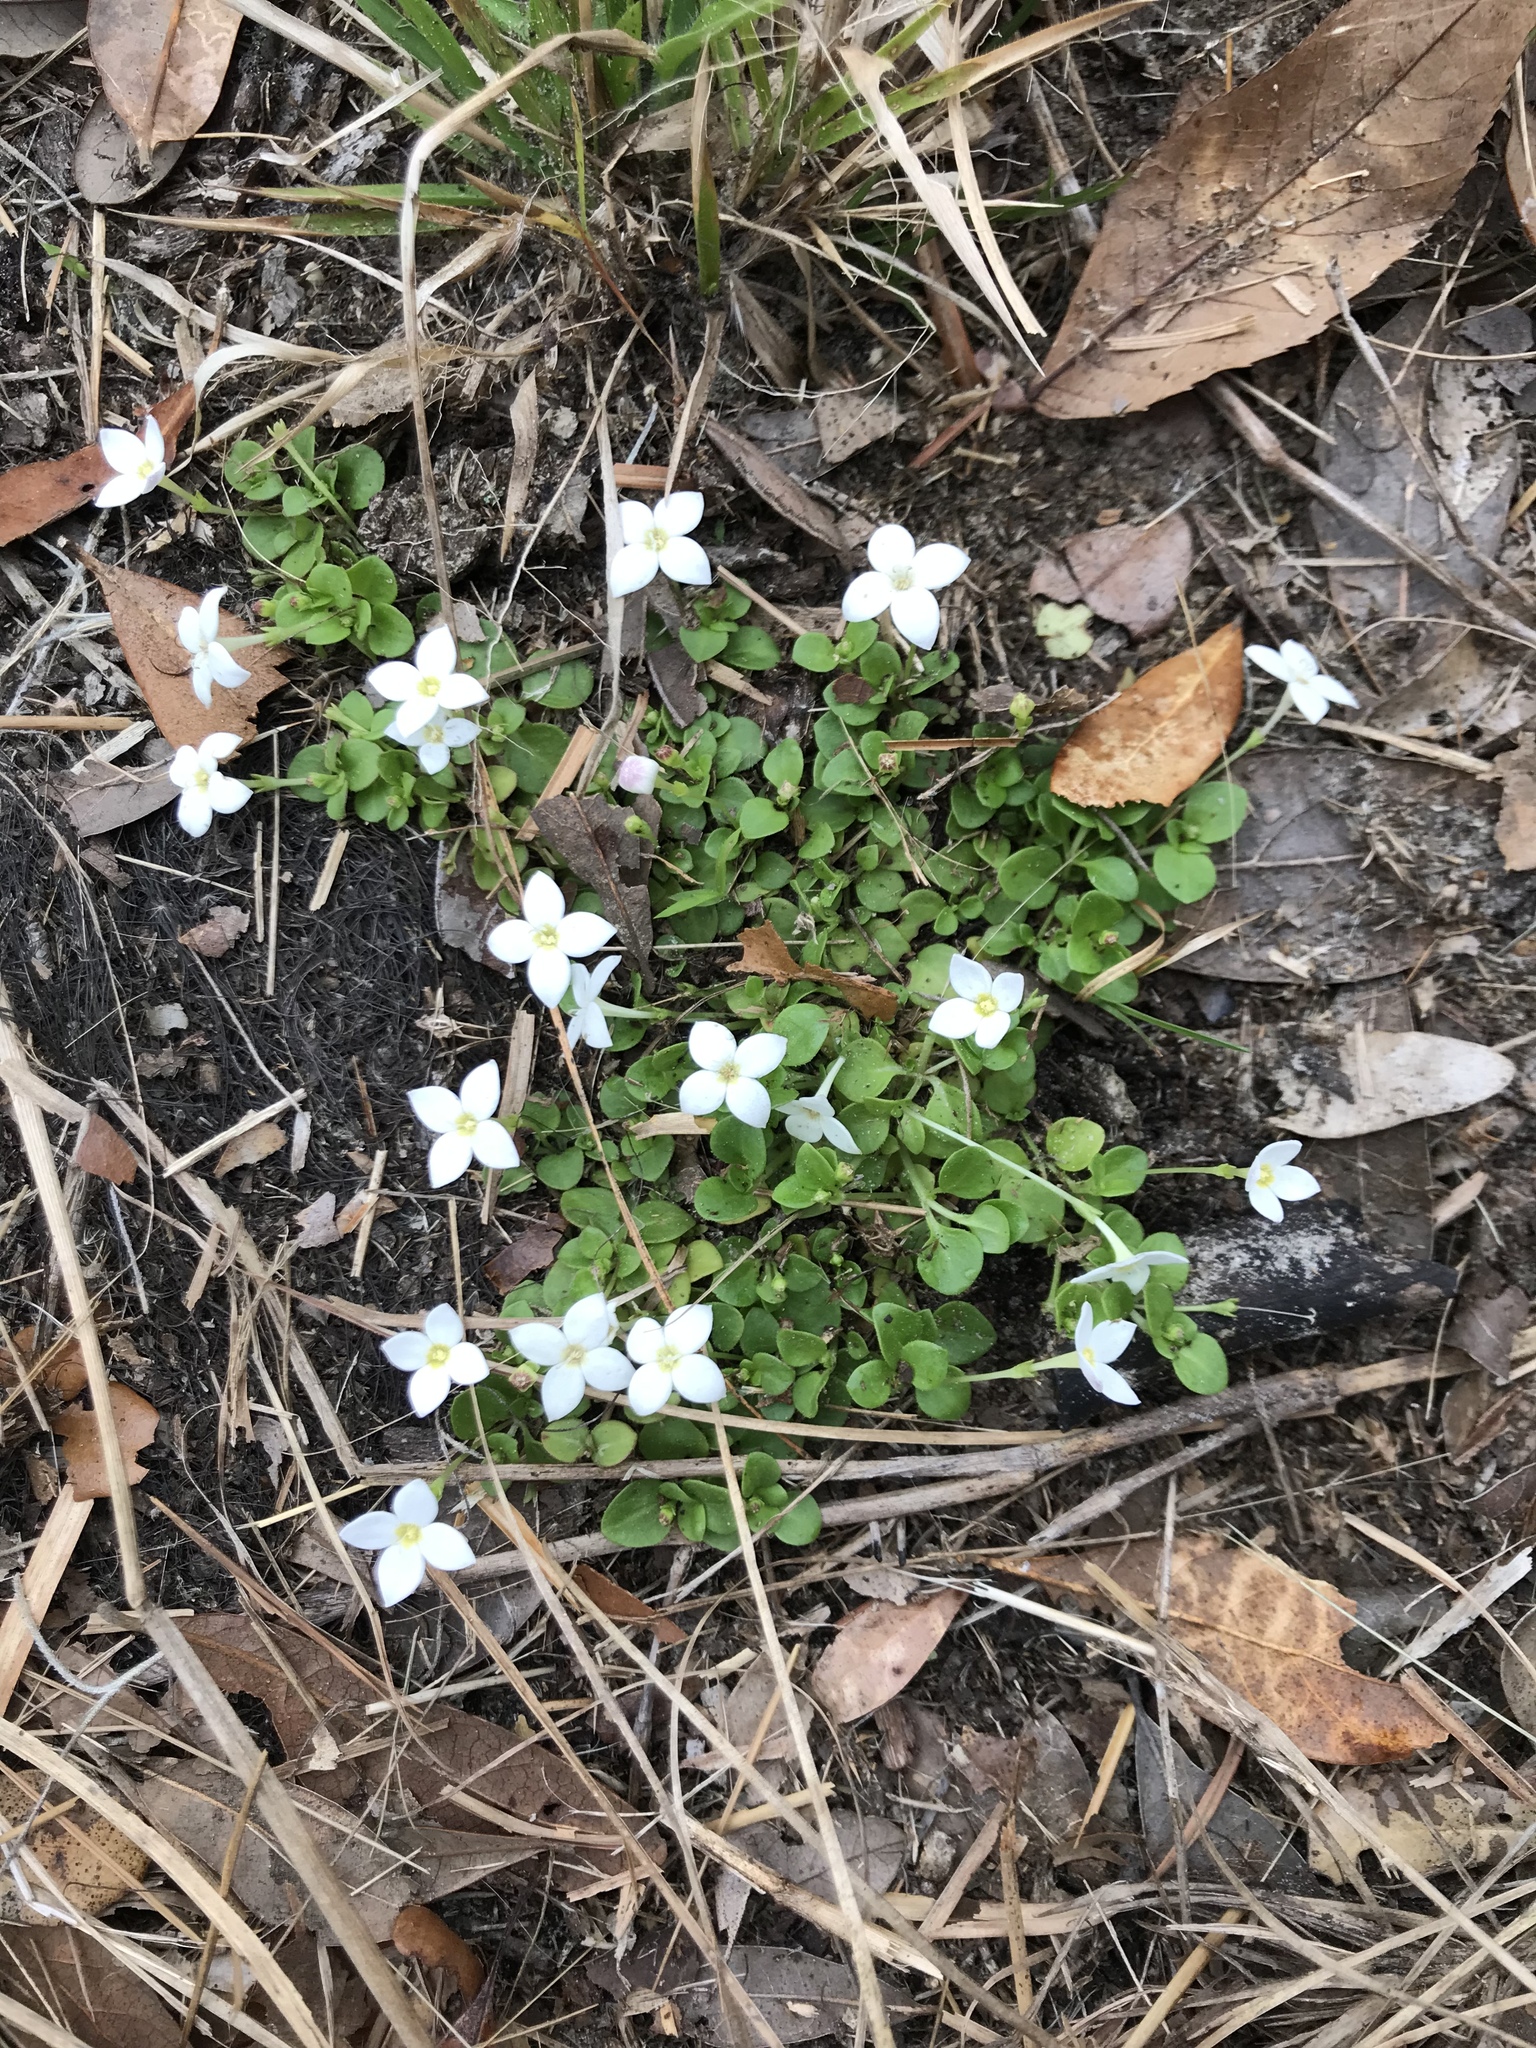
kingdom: Plantae
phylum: Tracheophyta
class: Magnoliopsida
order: Gentianales
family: Rubiaceae
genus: Houstonia
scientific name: Houstonia procumbens
